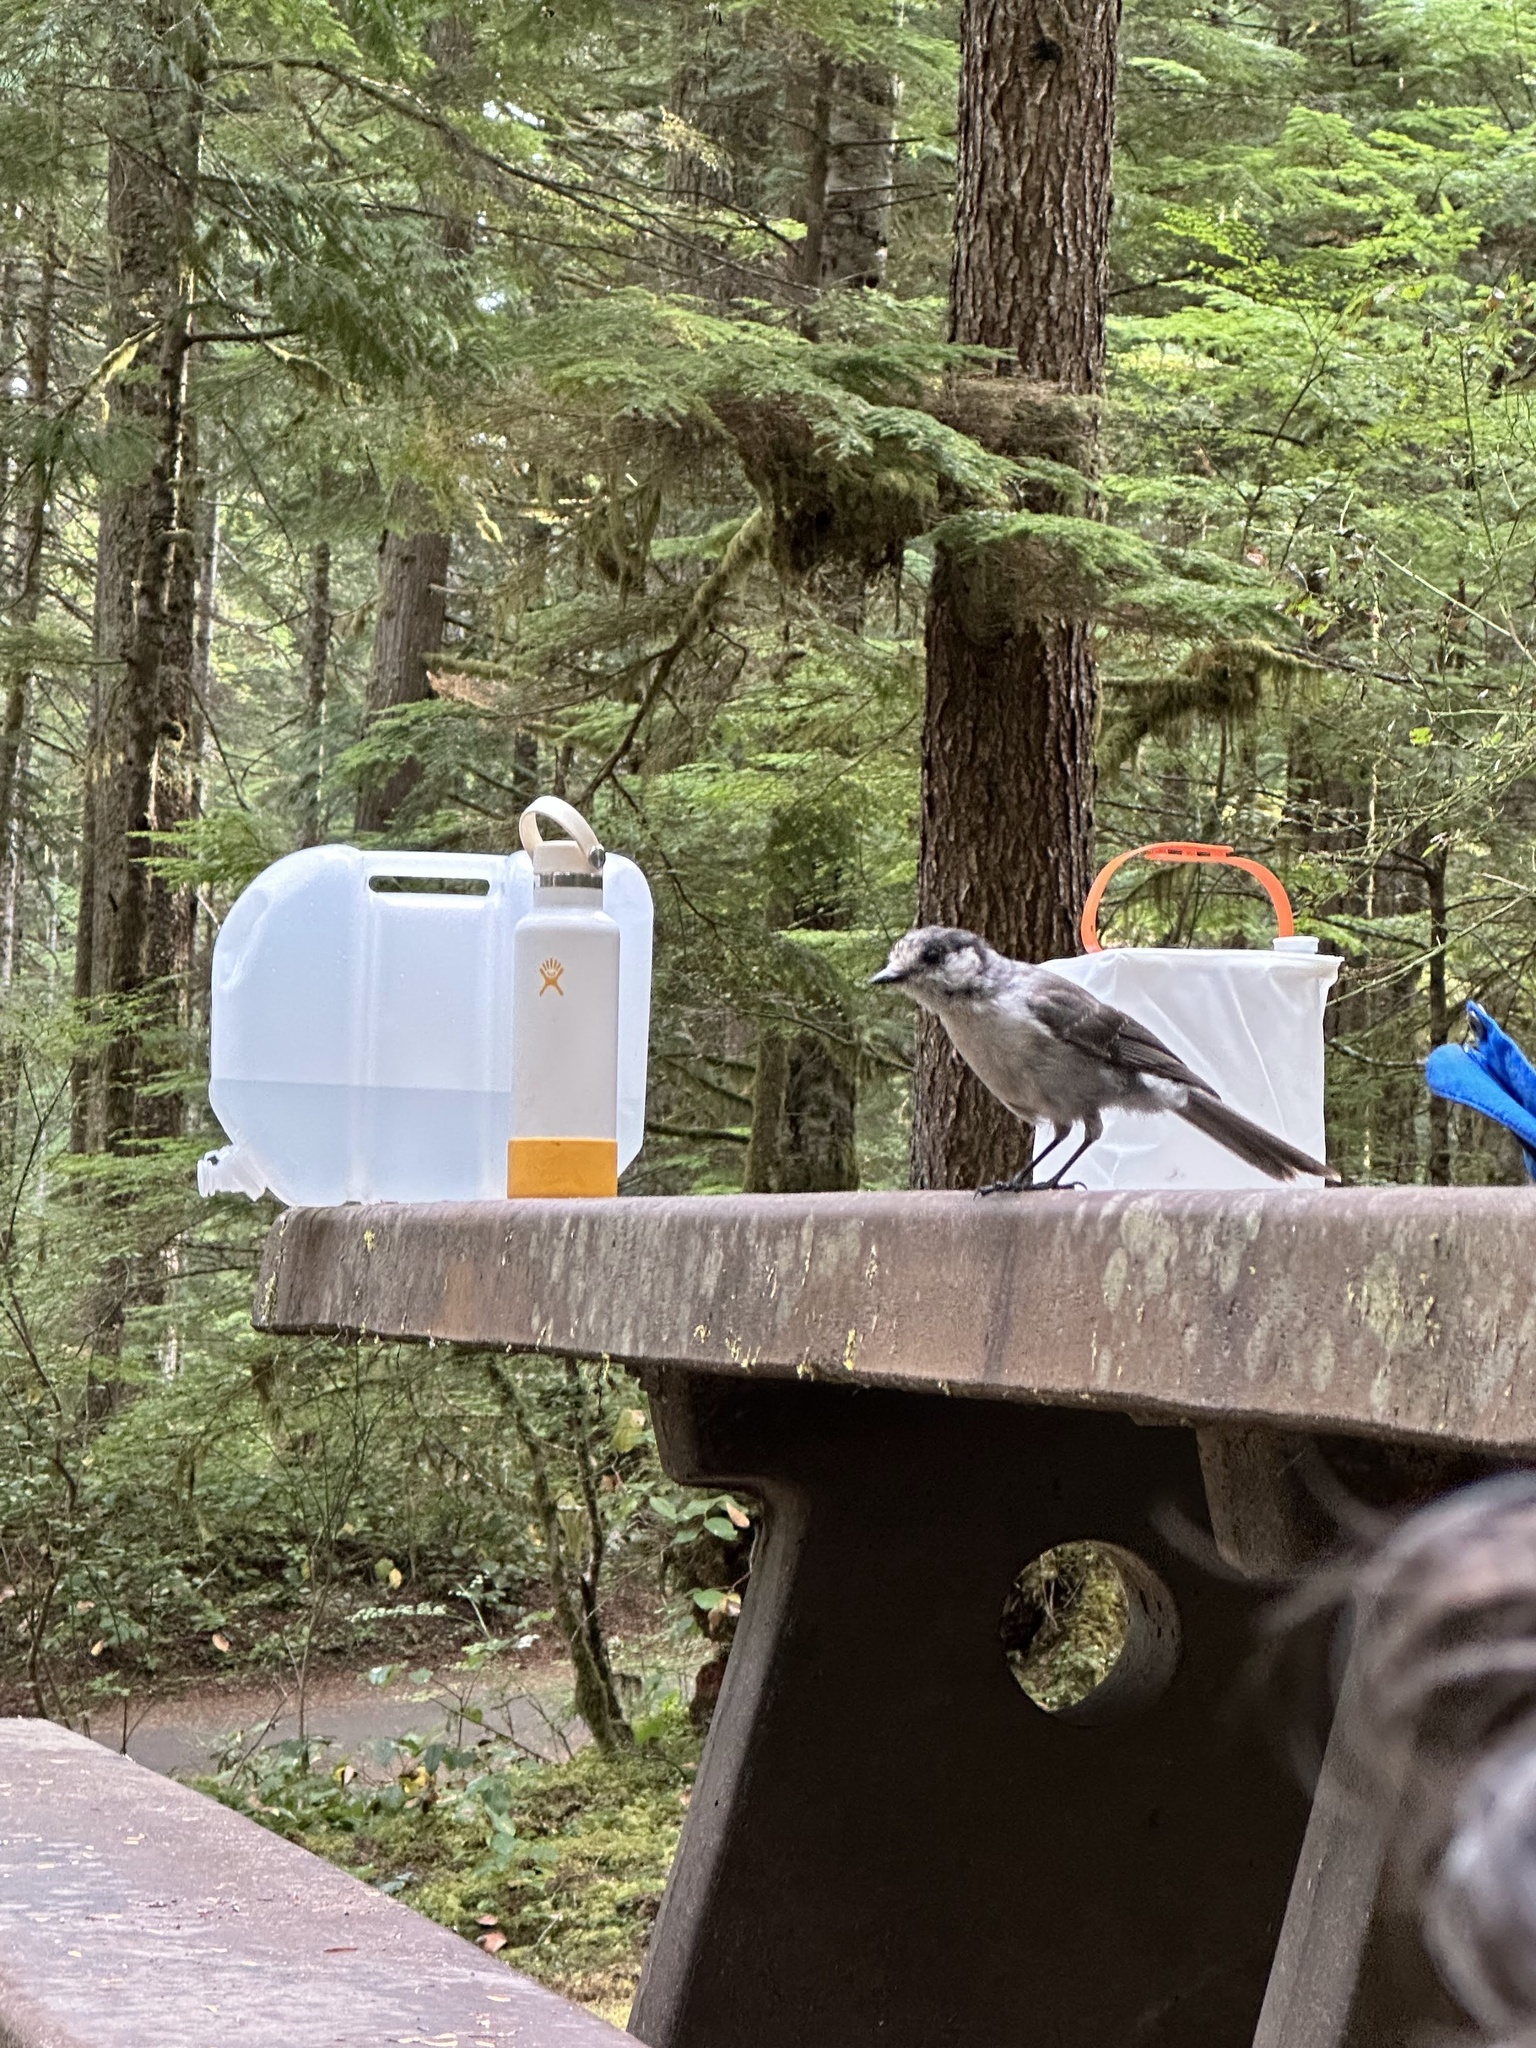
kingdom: Animalia
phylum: Chordata
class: Aves
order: Passeriformes
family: Corvidae
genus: Perisoreus
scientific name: Perisoreus canadensis
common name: Gray jay
